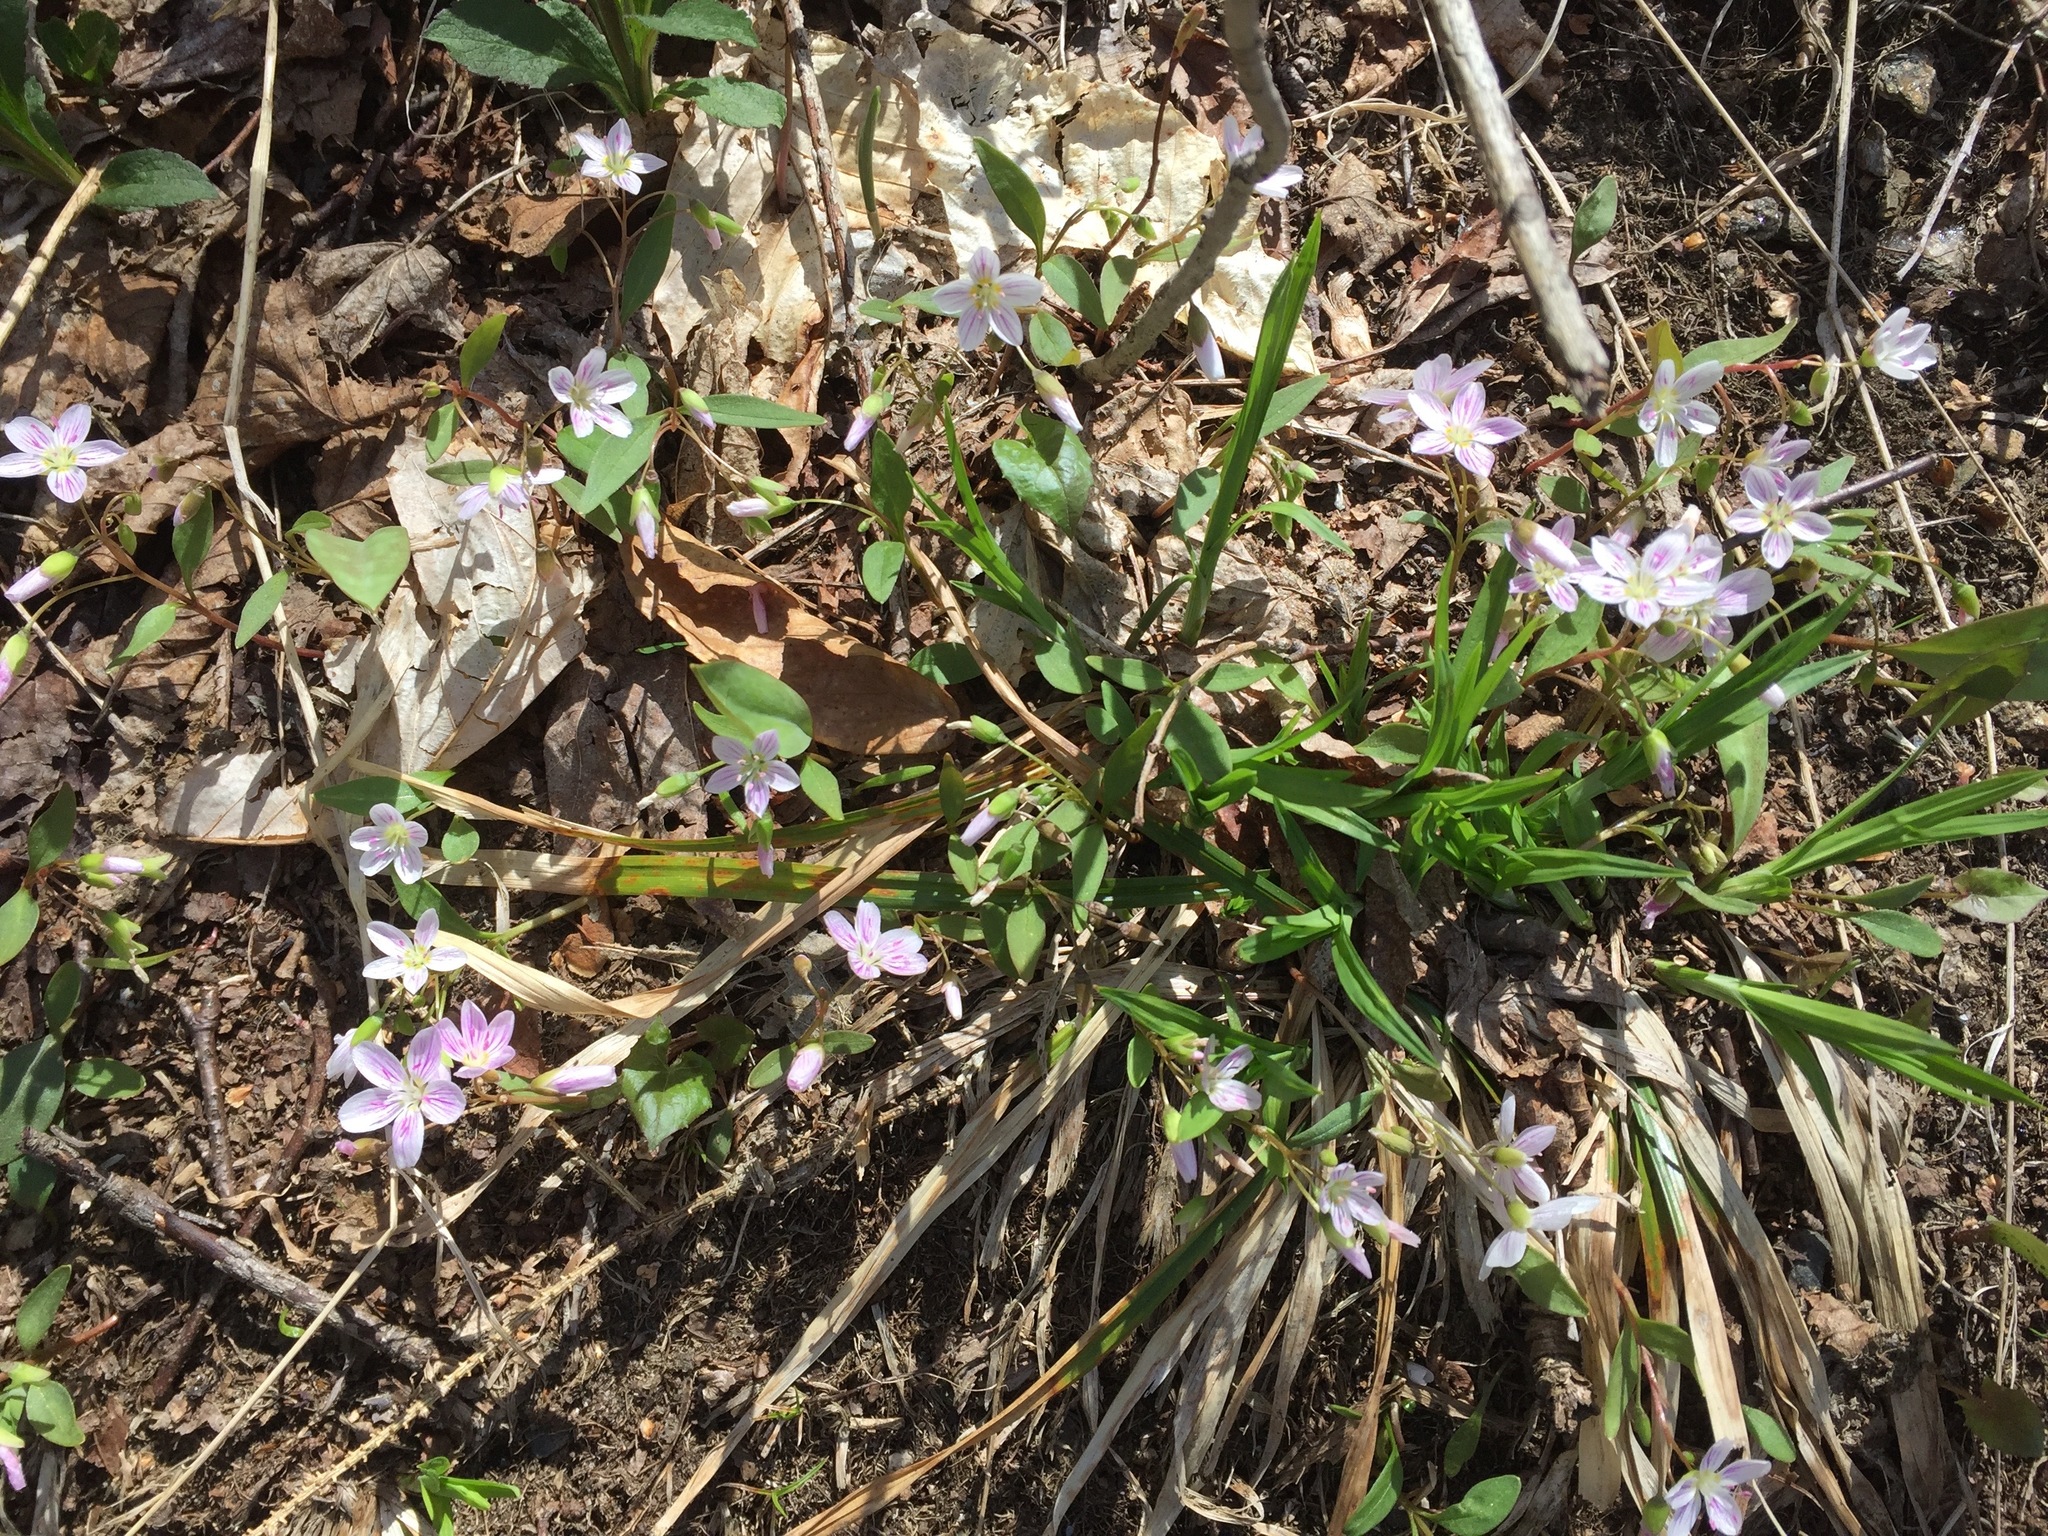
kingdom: Plantae
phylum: Tracheophyta
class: Magnoliopsida
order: Caryophyllales
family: Montiaceae
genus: Claytonia
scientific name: Claytonia caroliniana
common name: Carolina spring beauty
